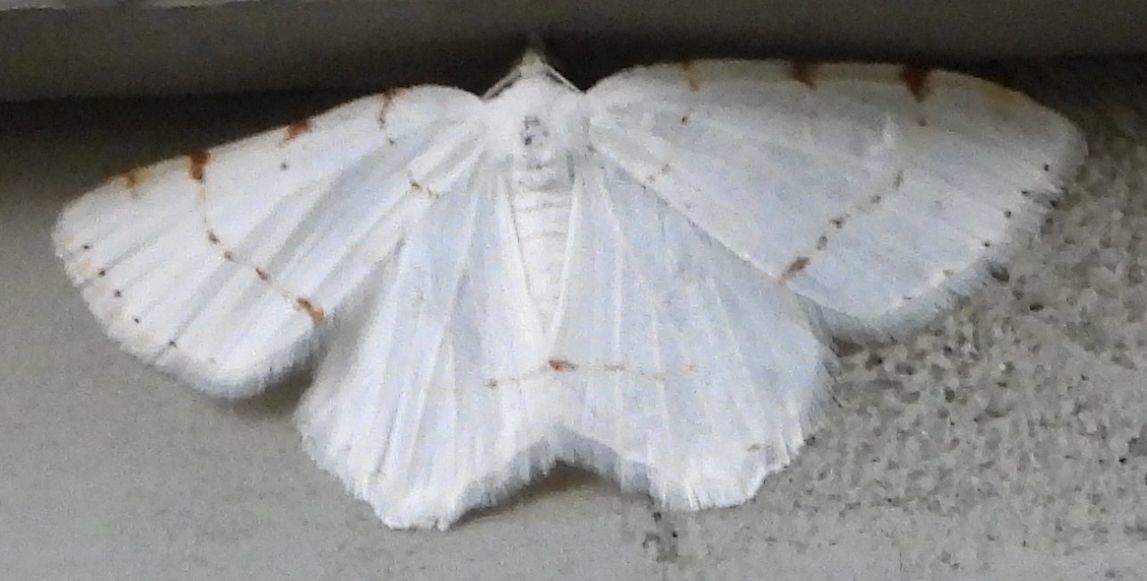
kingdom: Animalia
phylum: Arthropoda
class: Insecta
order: Lepidoptera
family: Geometridae
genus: Macaria
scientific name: Macaria pustularia
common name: Lesser maple spanworm moth
